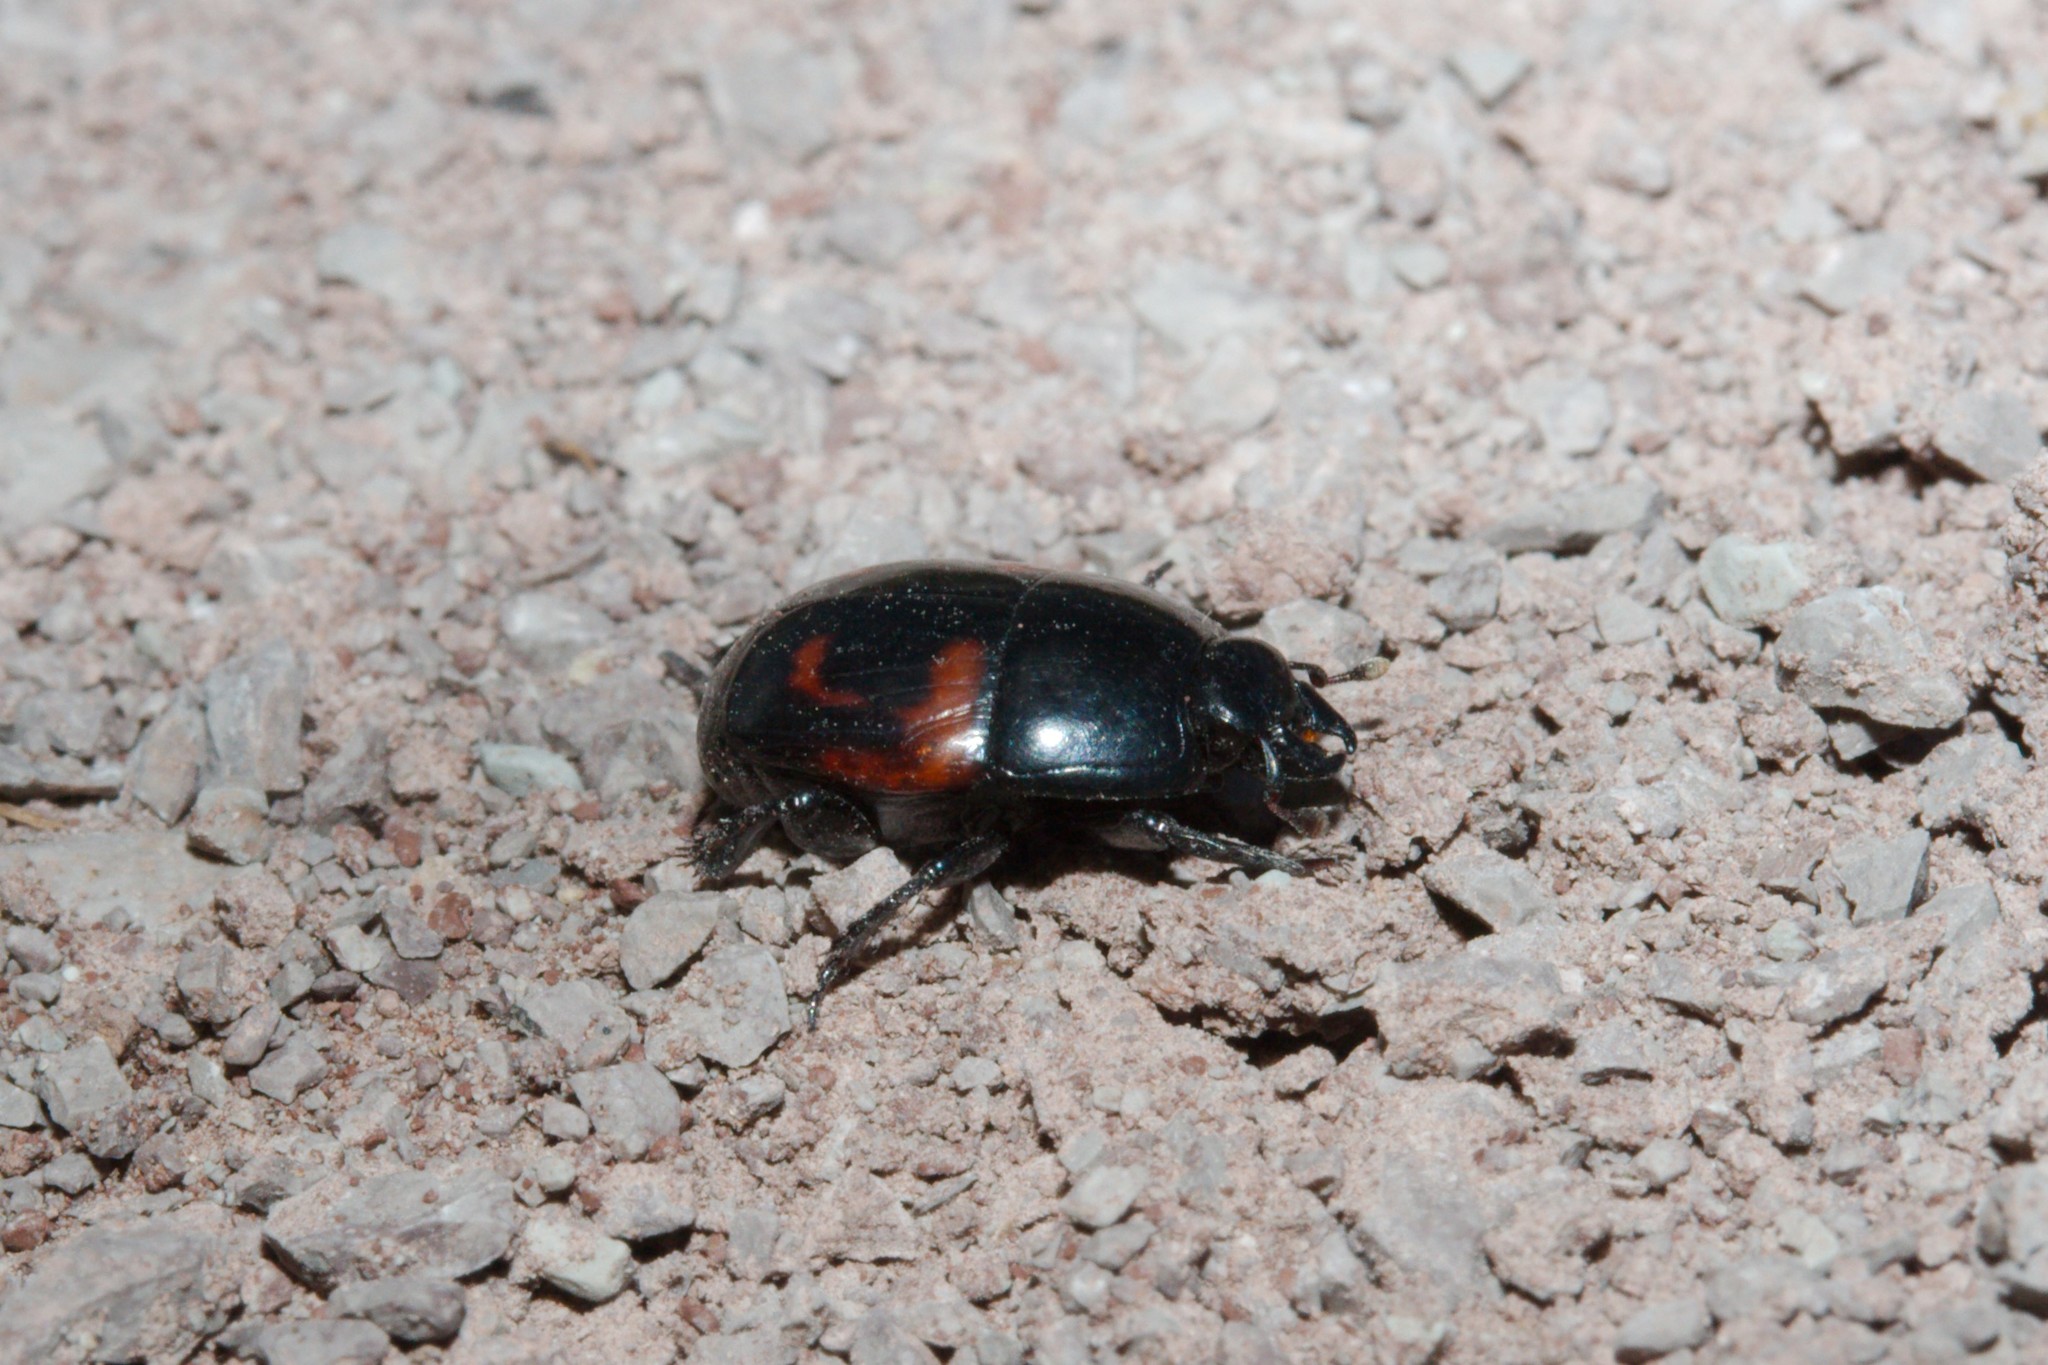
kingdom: Animalia
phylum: Arthropoda
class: Insecta
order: Coleoptera
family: Histeridae
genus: Hister
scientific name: Hister quadrimaculatus
